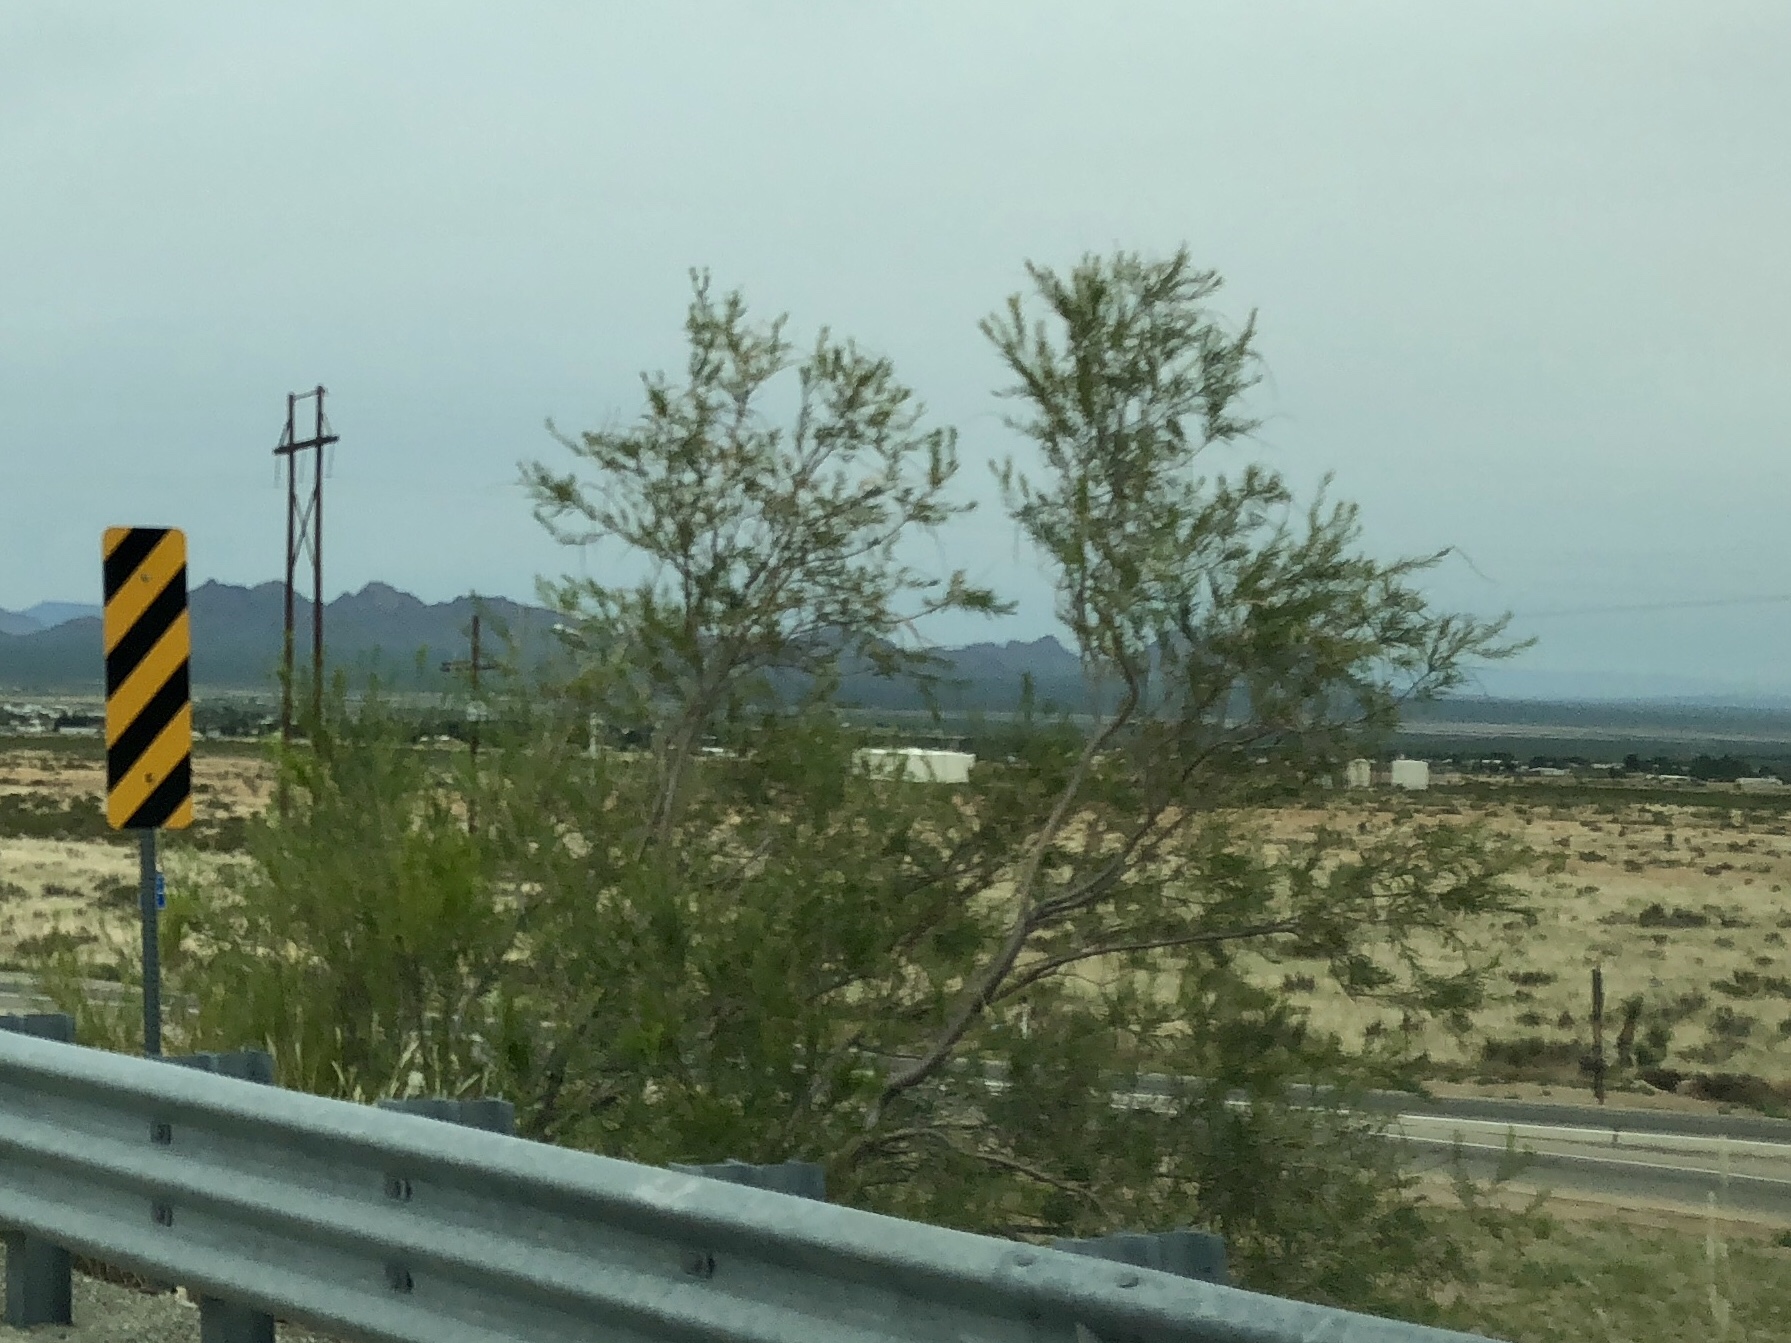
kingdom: Plantae
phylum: Tracheophyta
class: Magnoliopsida
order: Lamiales
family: Bignoniaceae
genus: Chilopsis
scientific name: Chilopsis linearis
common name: Desert-willow
